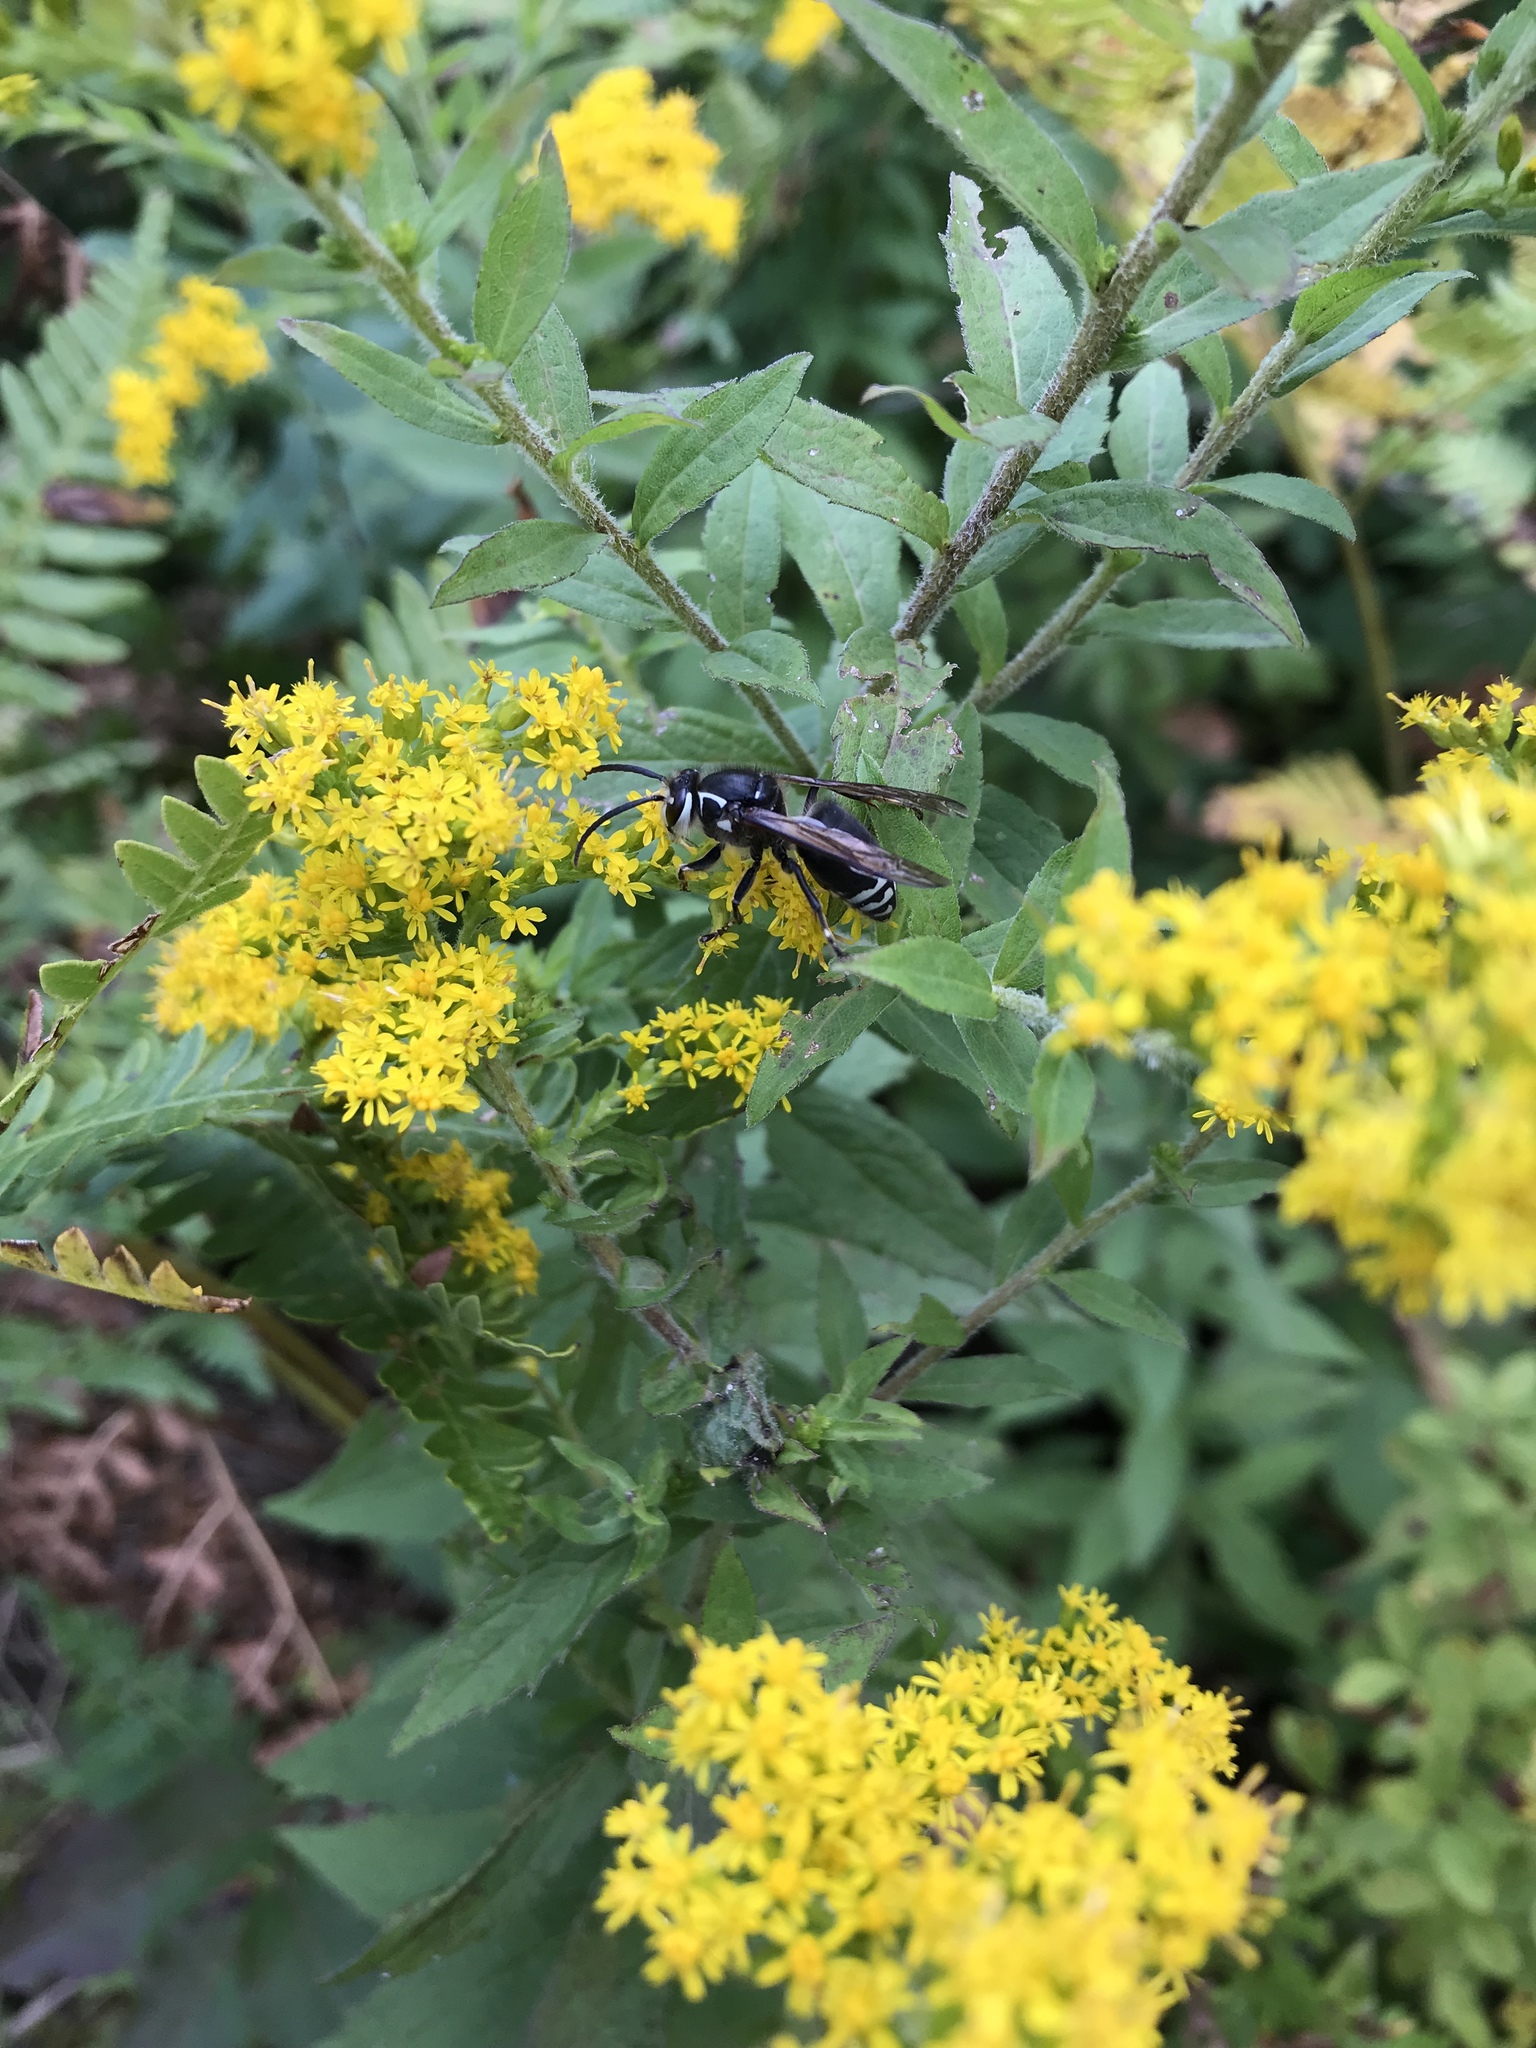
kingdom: Animalia
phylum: Arthropoda
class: Insecta
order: Hymenoptera
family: Vespidae
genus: Dolichovespula
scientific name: Dolichovespula maculata
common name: Bald-faced hornet
